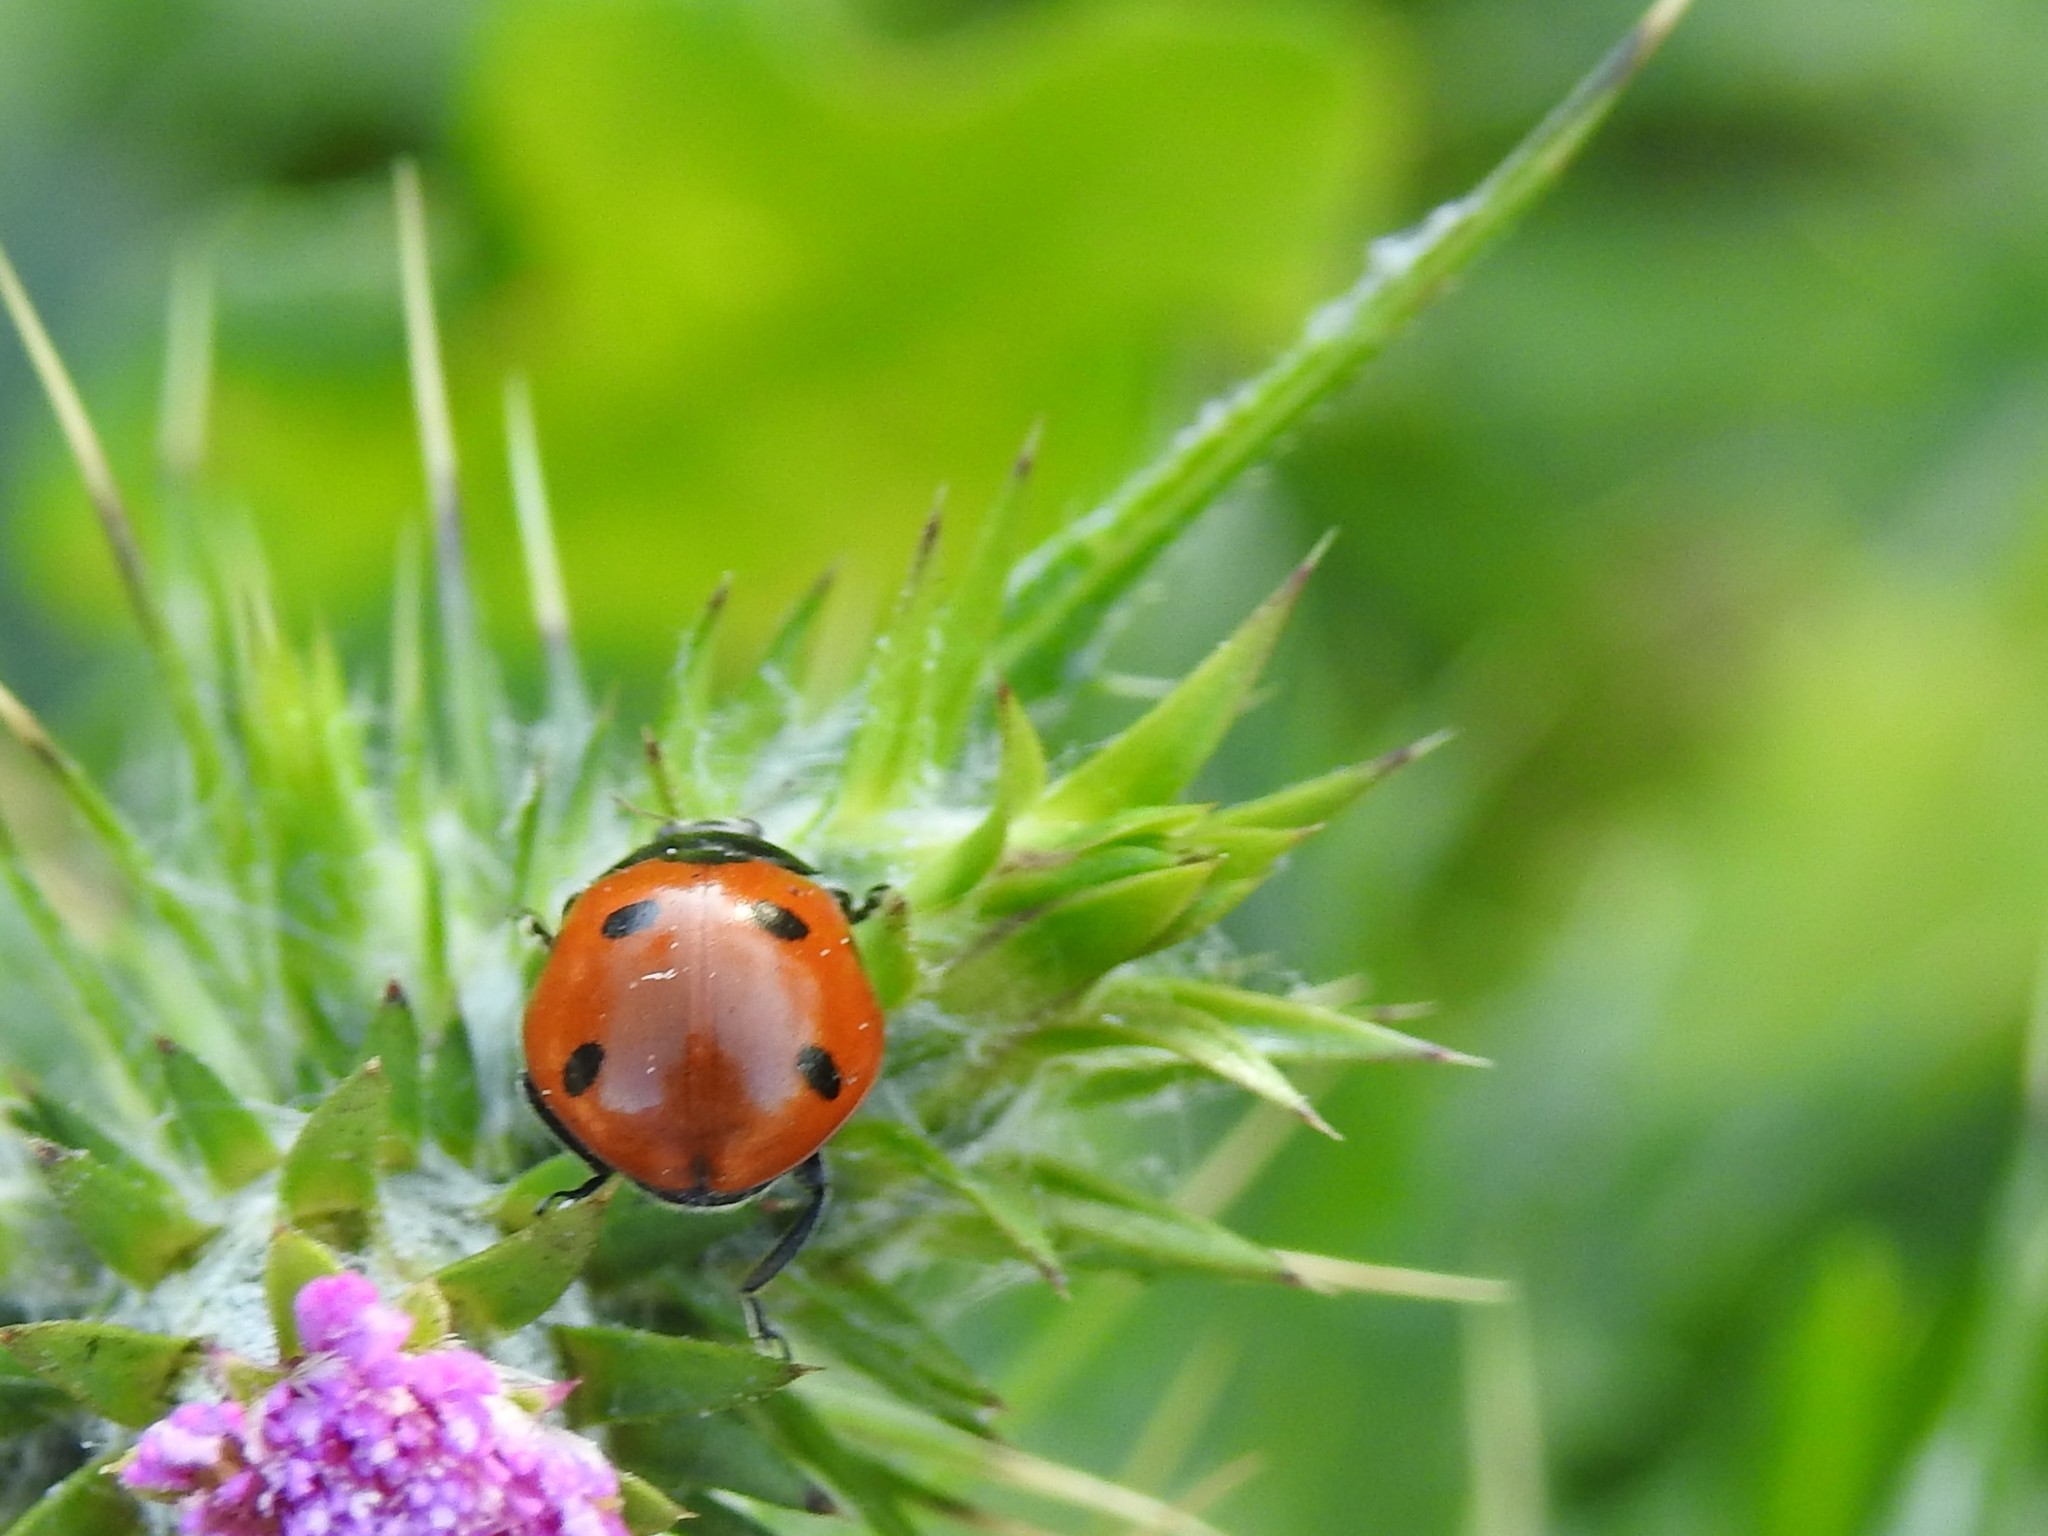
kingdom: Animalia
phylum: Arthropoda
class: Insecta
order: Coleoptera
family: Coccinellidae
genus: Coccinella
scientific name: Coccinella septempunctata
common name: Sevenspotted lady beetle
